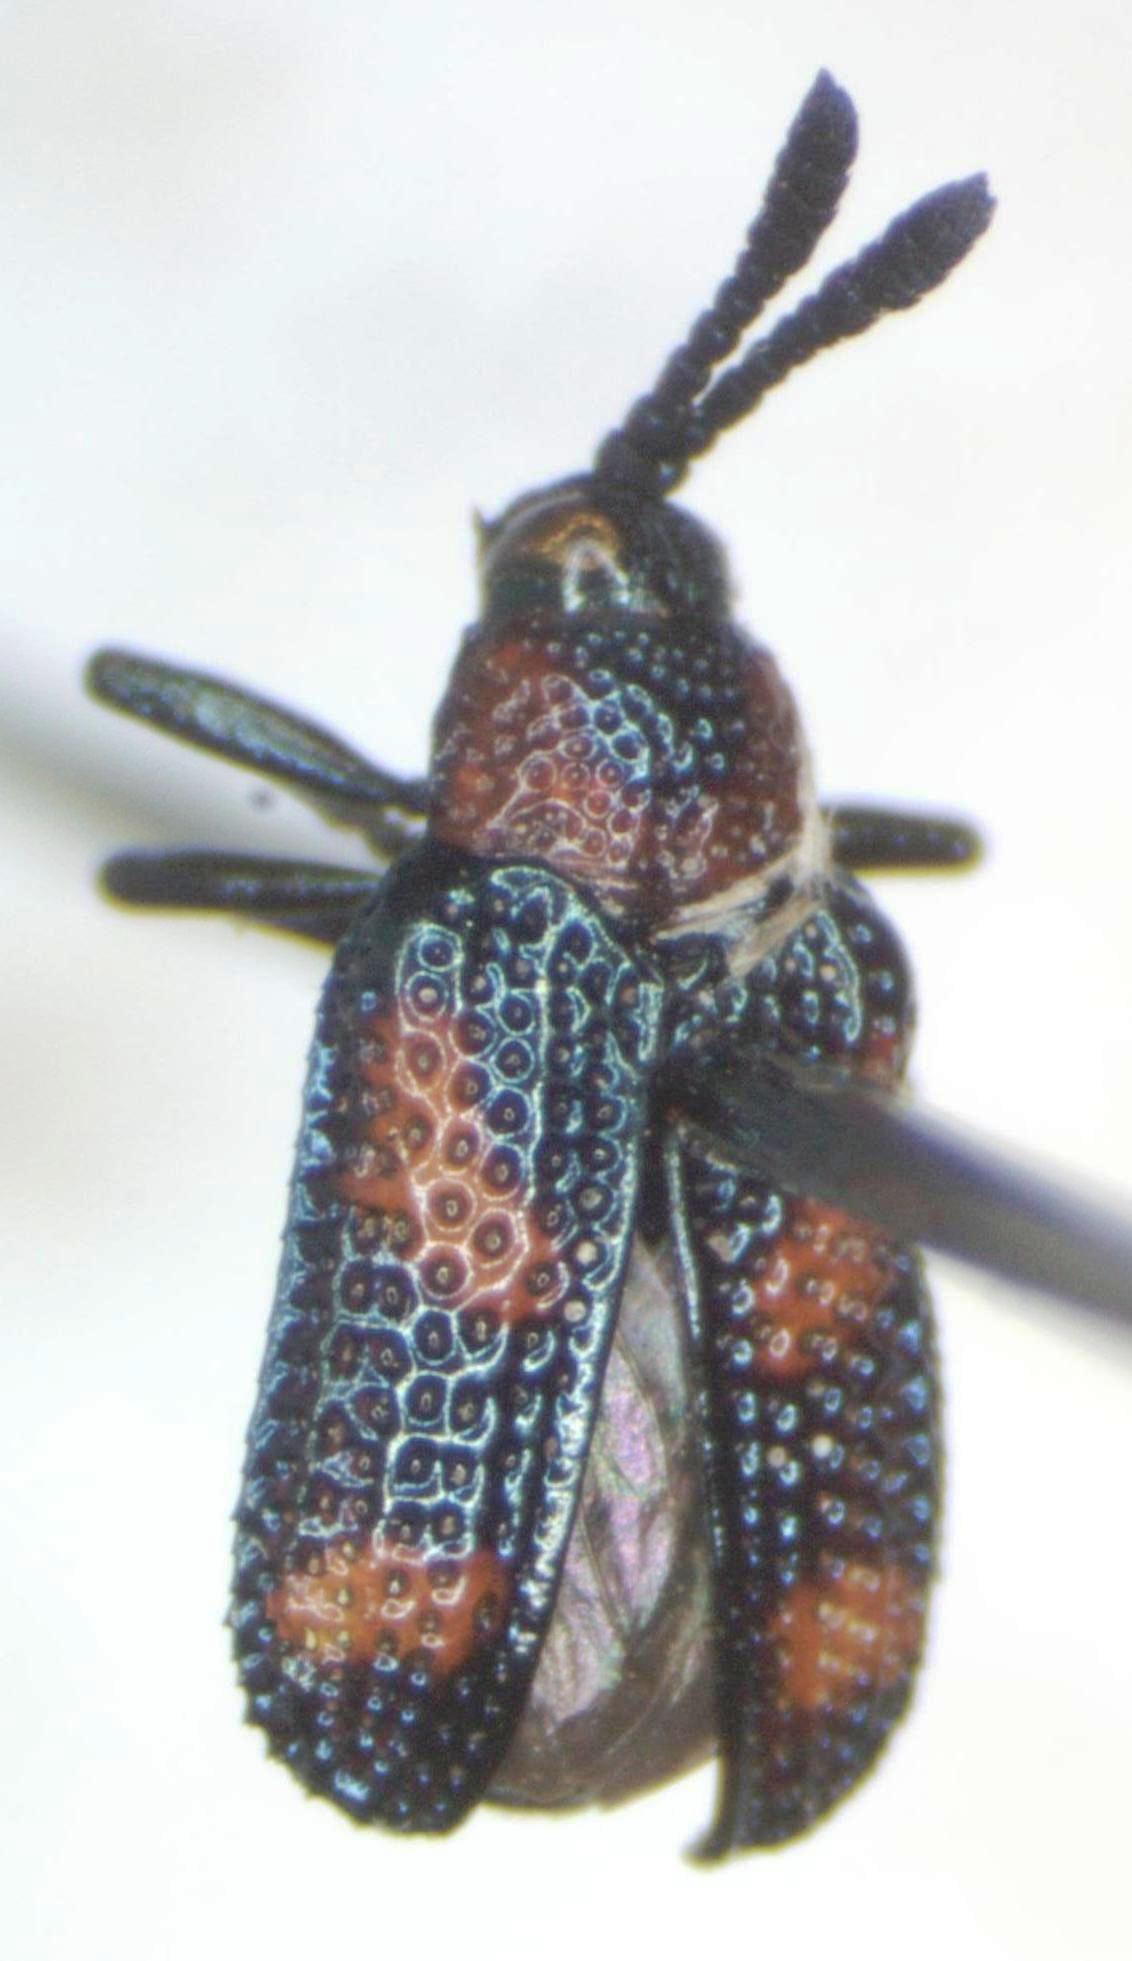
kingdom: Animalia
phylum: Arthropoda
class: Insecta
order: Coleoptera
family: Chrysomelidae
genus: Microrhopala
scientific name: Microrhopala perforata
